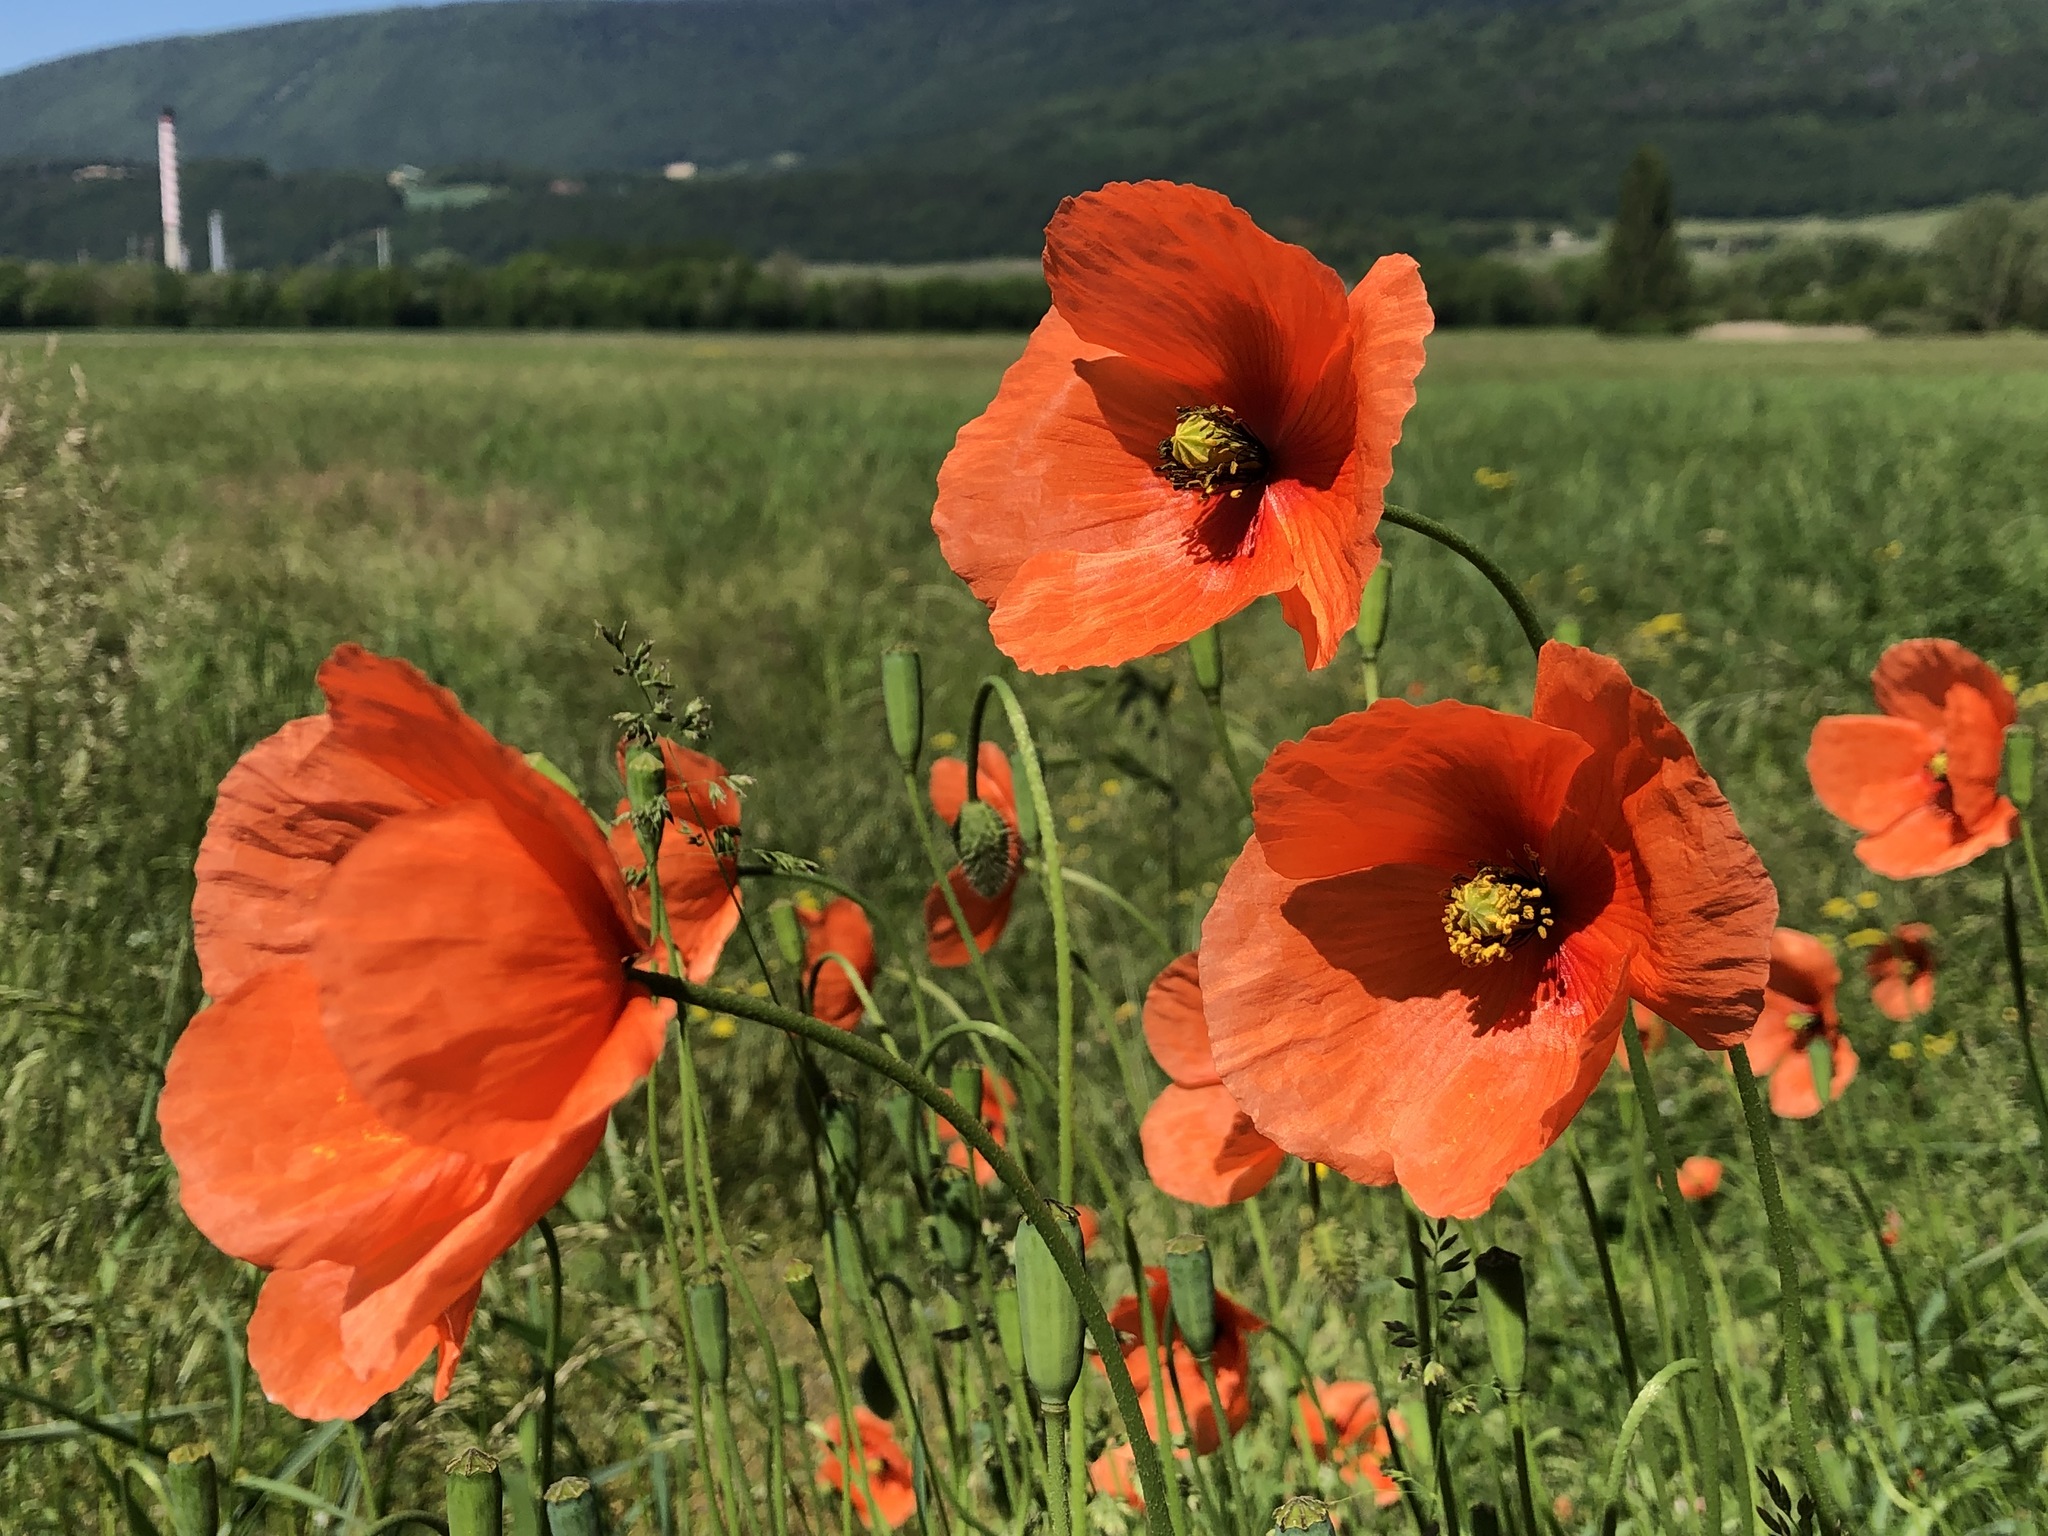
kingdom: Plantae
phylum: Tracheophyta
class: Magnoliopsida
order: Ranunculales
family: Papaveraceae
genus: Papaver
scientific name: Papaver dubium
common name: Long-headed poppy
